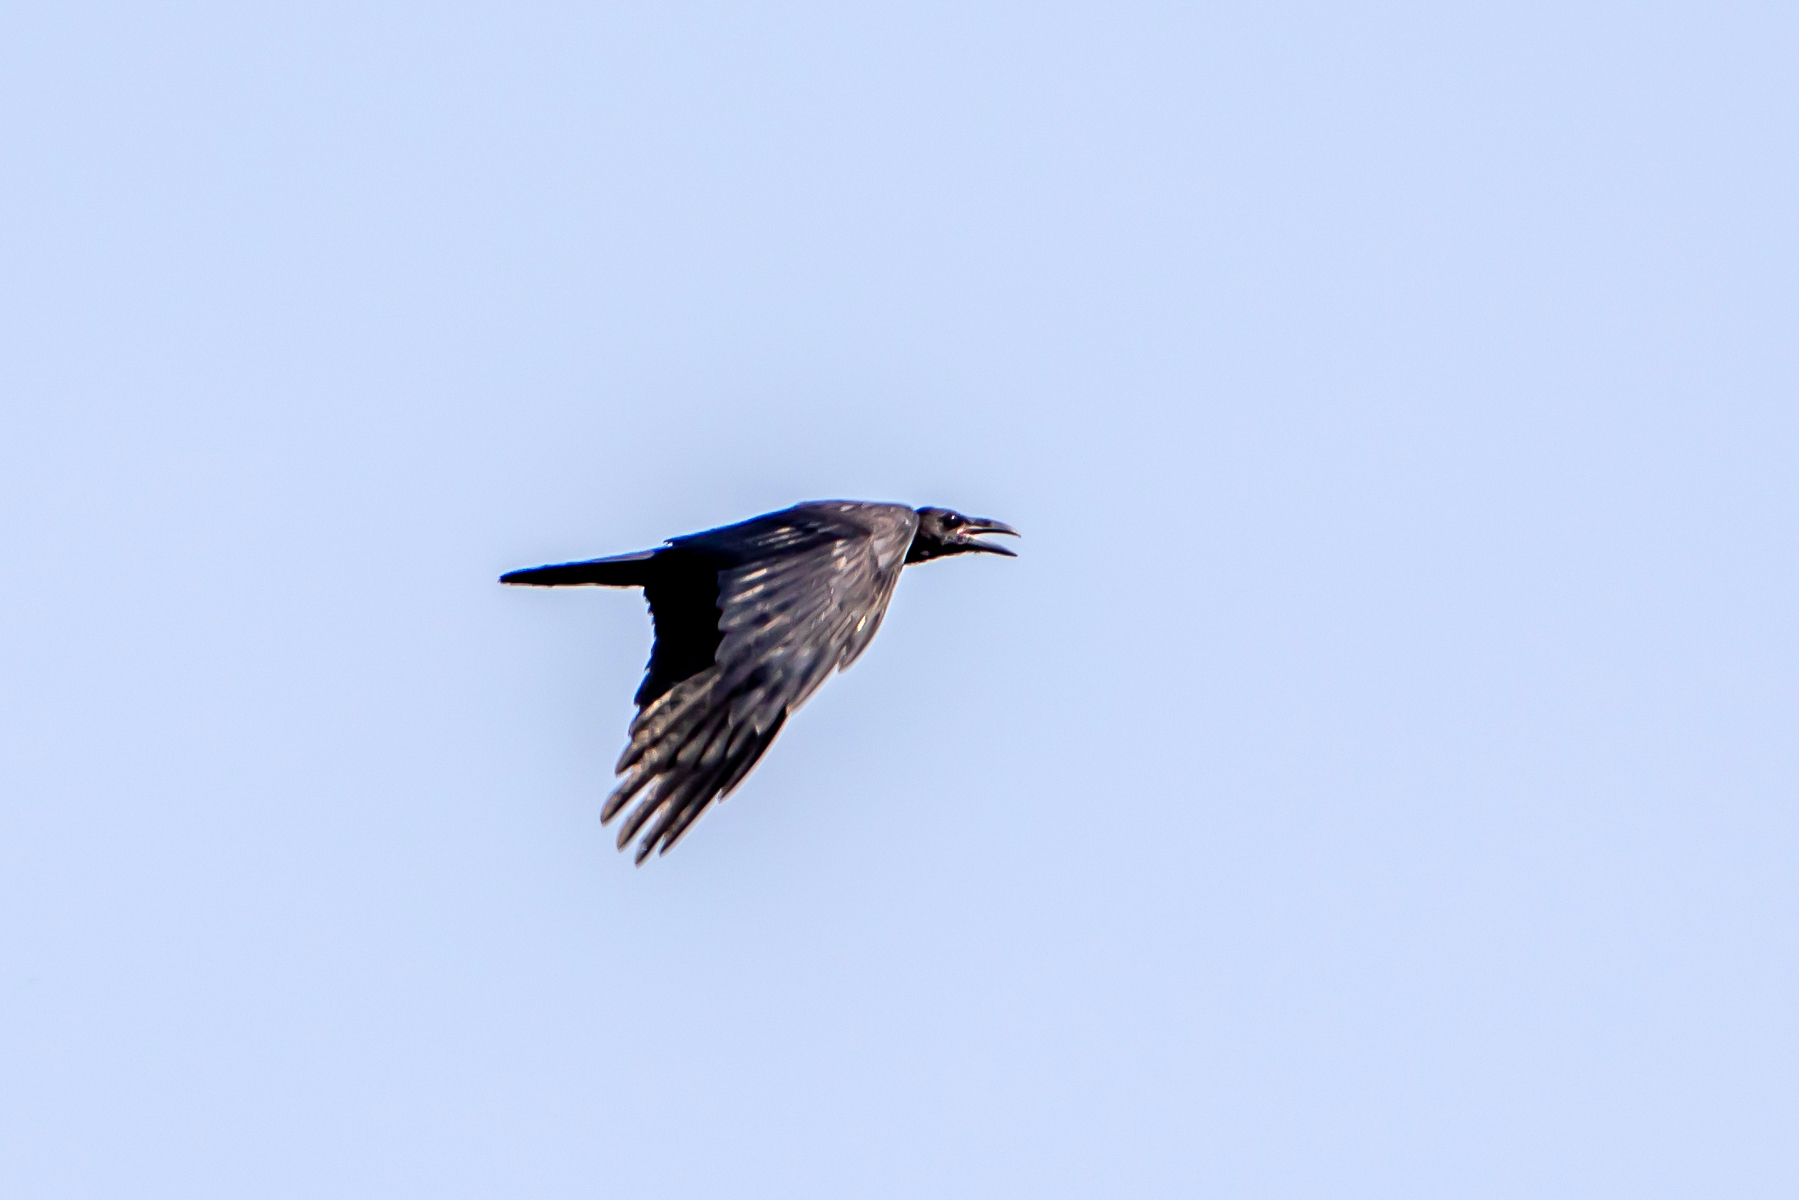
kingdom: Animalia
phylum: Chordata
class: Aves
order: Passeriformes
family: Corvidae
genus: Corvus
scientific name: Corvus corax
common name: Common raven
